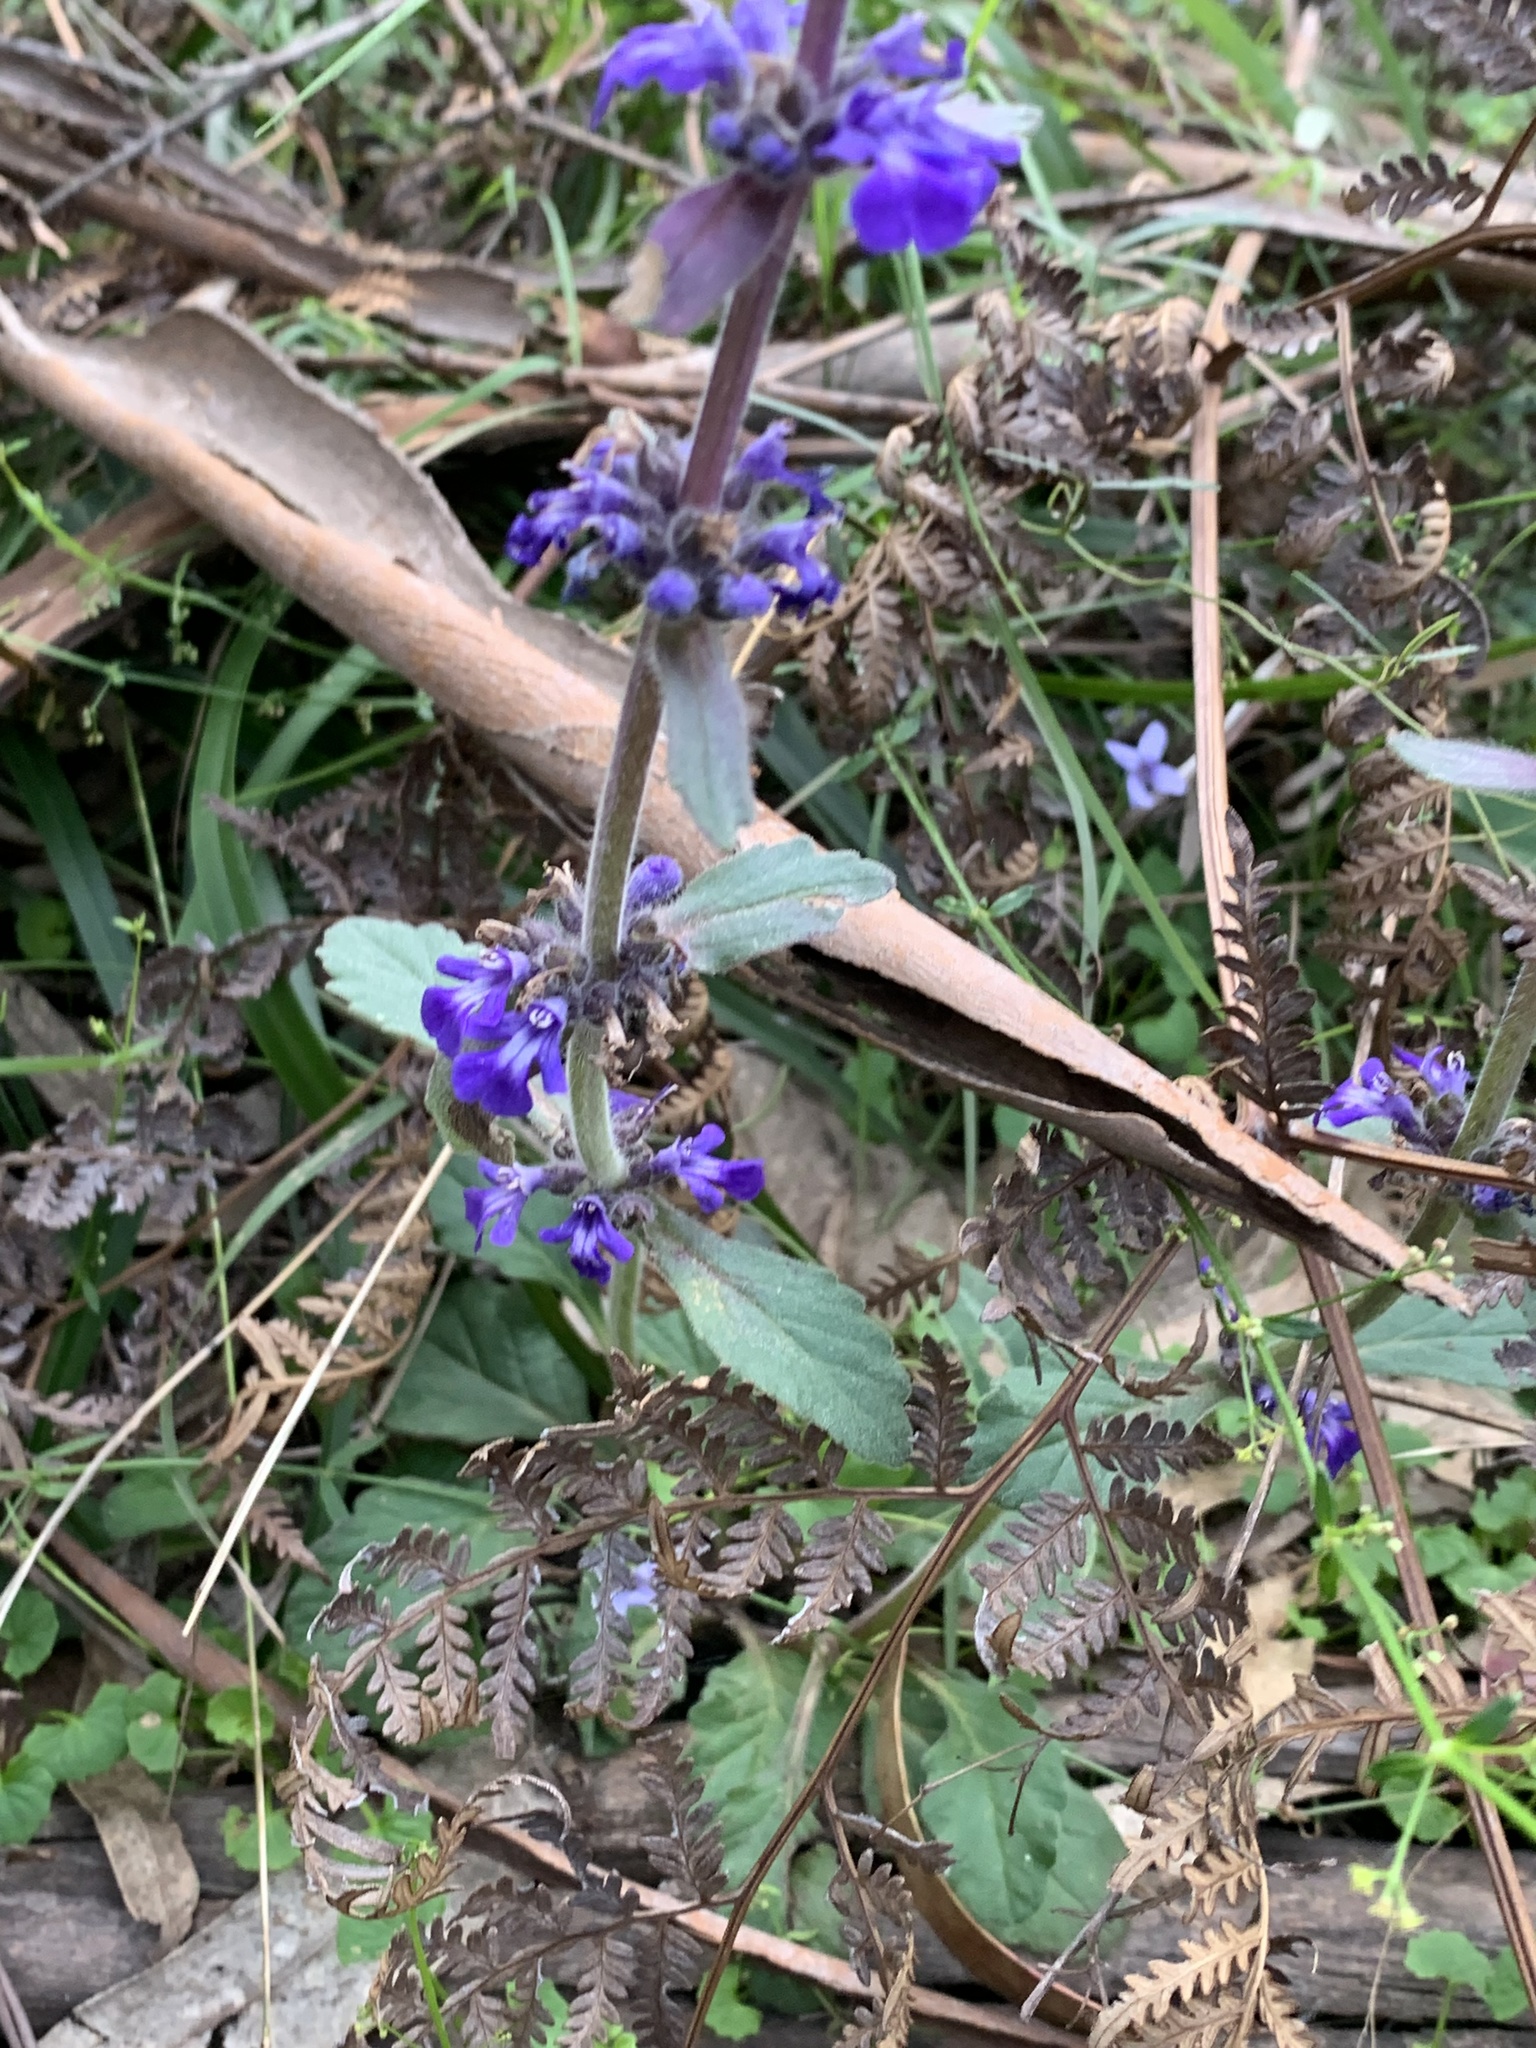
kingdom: Plantae
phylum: Tracheophyta
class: Magnoliopsida
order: Lamiales
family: Lamiaceae
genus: Ajuga
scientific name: Ajuga australis
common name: Australian bugle
